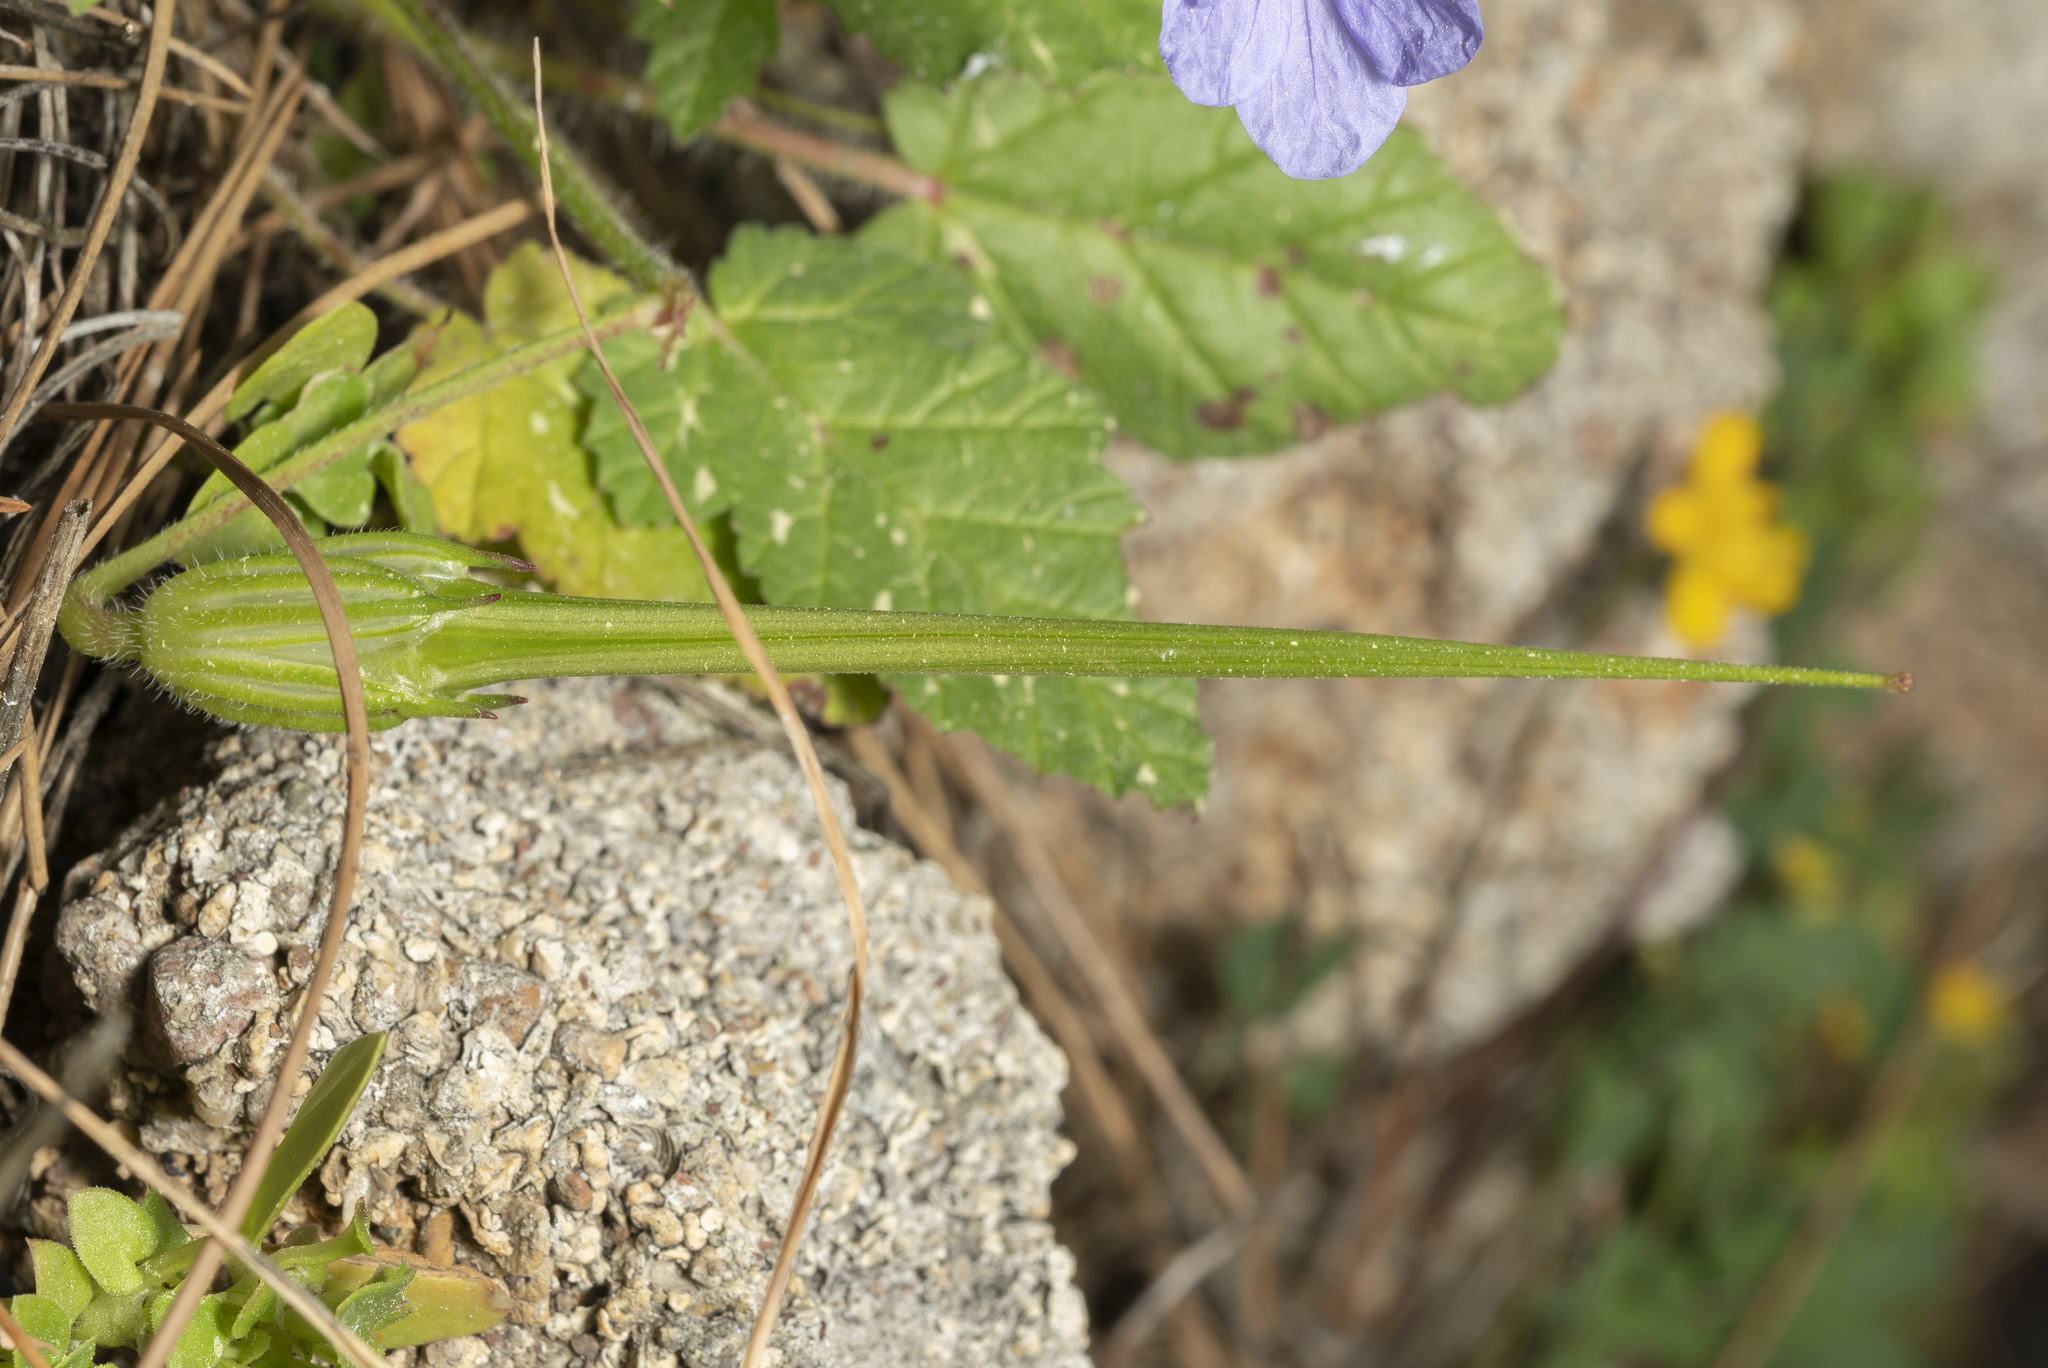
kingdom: Plantae
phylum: Tracheophyta
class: Magnoliopsida
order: Geraniales
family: Geraniaceae
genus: Erodium
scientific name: Erodium gruinum
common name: Iranian stork's bill
